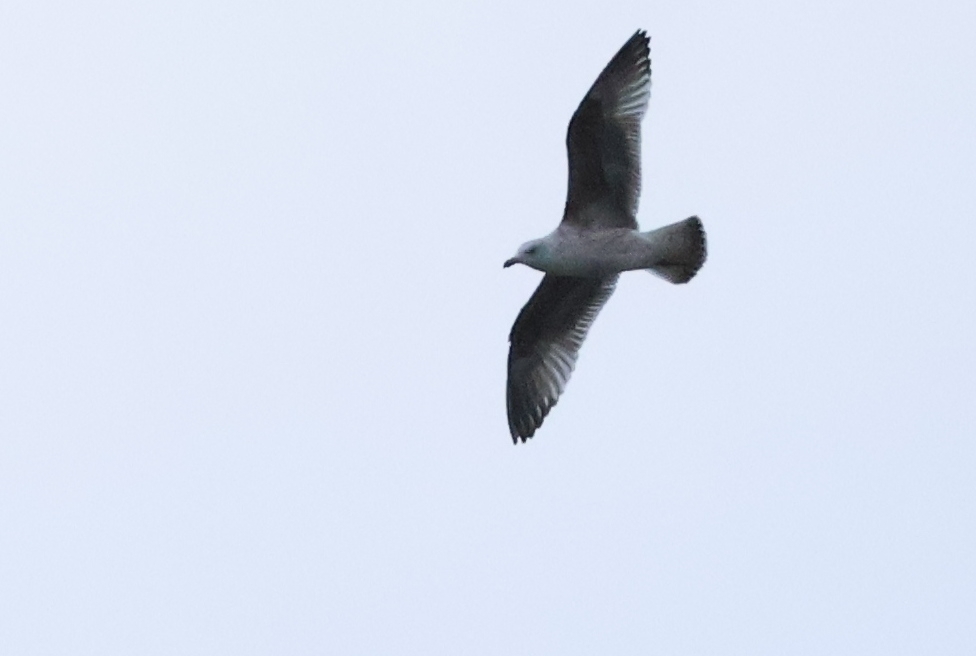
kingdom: Animalia
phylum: Chordata
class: Aves
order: Charadriiformes
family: Laridae
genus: Larus
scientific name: Larus canus
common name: Mew gull
